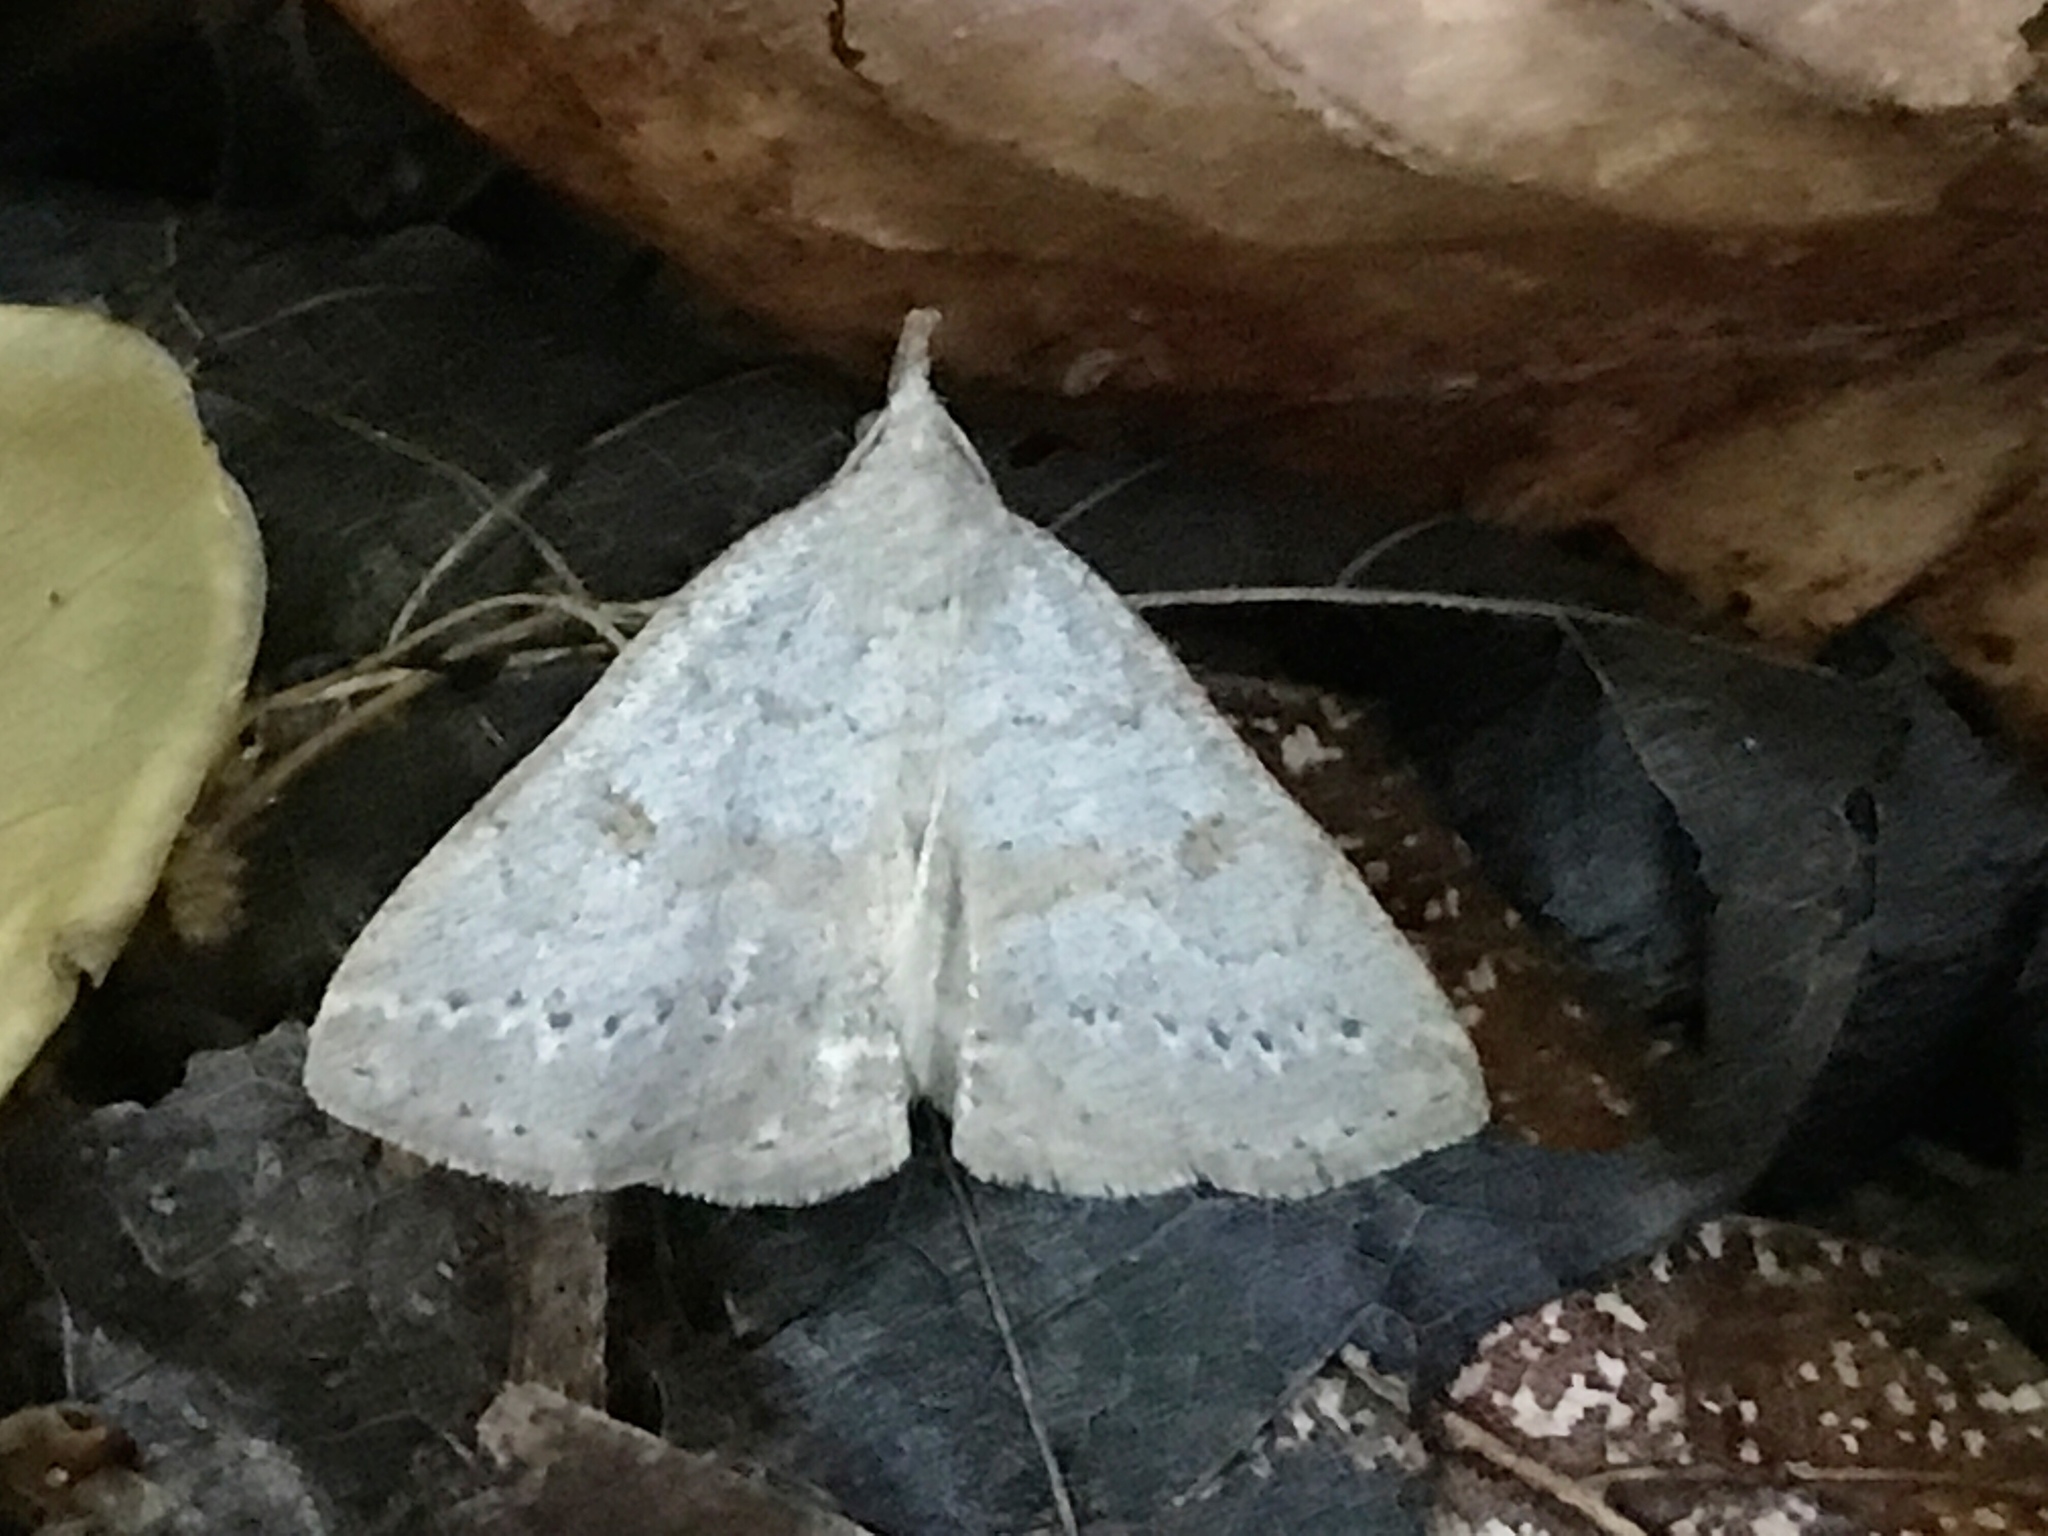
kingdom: Animalia
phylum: Arthropoda
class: Insecta
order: Lepidoptera
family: Erebidae
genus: Macrochilo
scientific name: Macrochilo morbidalis
